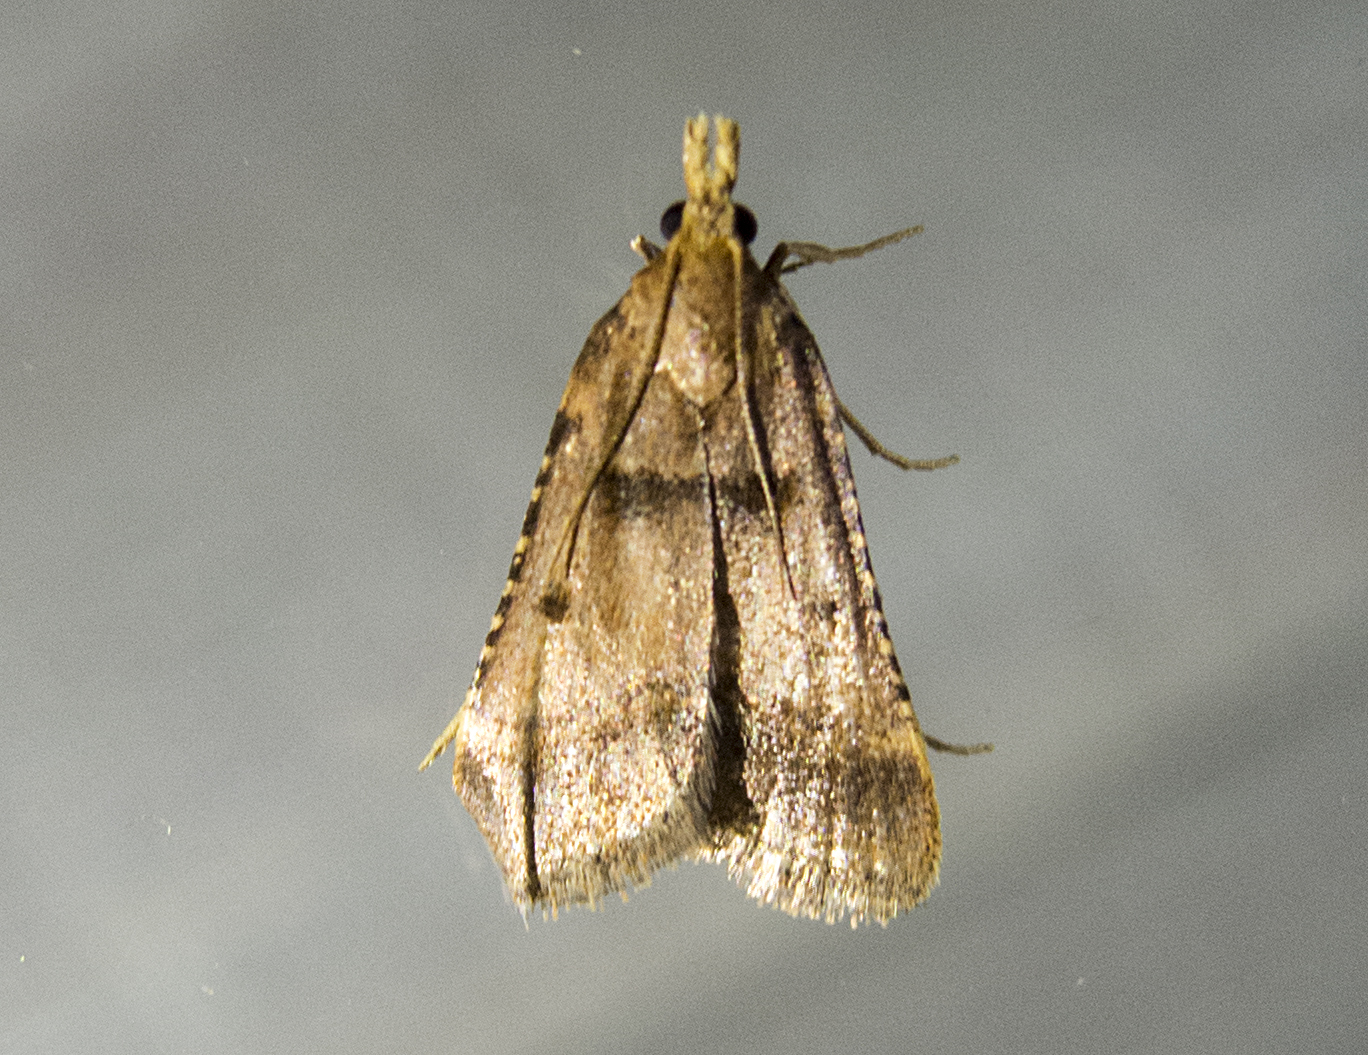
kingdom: Animalia
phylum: Arthropoda
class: Insecta
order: Lepidoptera
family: Pyralidae
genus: Stemmatophora
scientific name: Stemmatophora brunnealis
